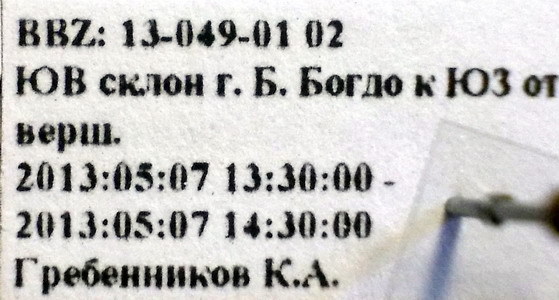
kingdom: Animalia
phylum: Arthropoda
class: Insecta
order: Hemiptera
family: Lygaeidae
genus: Kleidocerys
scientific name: Kleidocerys resedae
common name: Birch catkin bug
